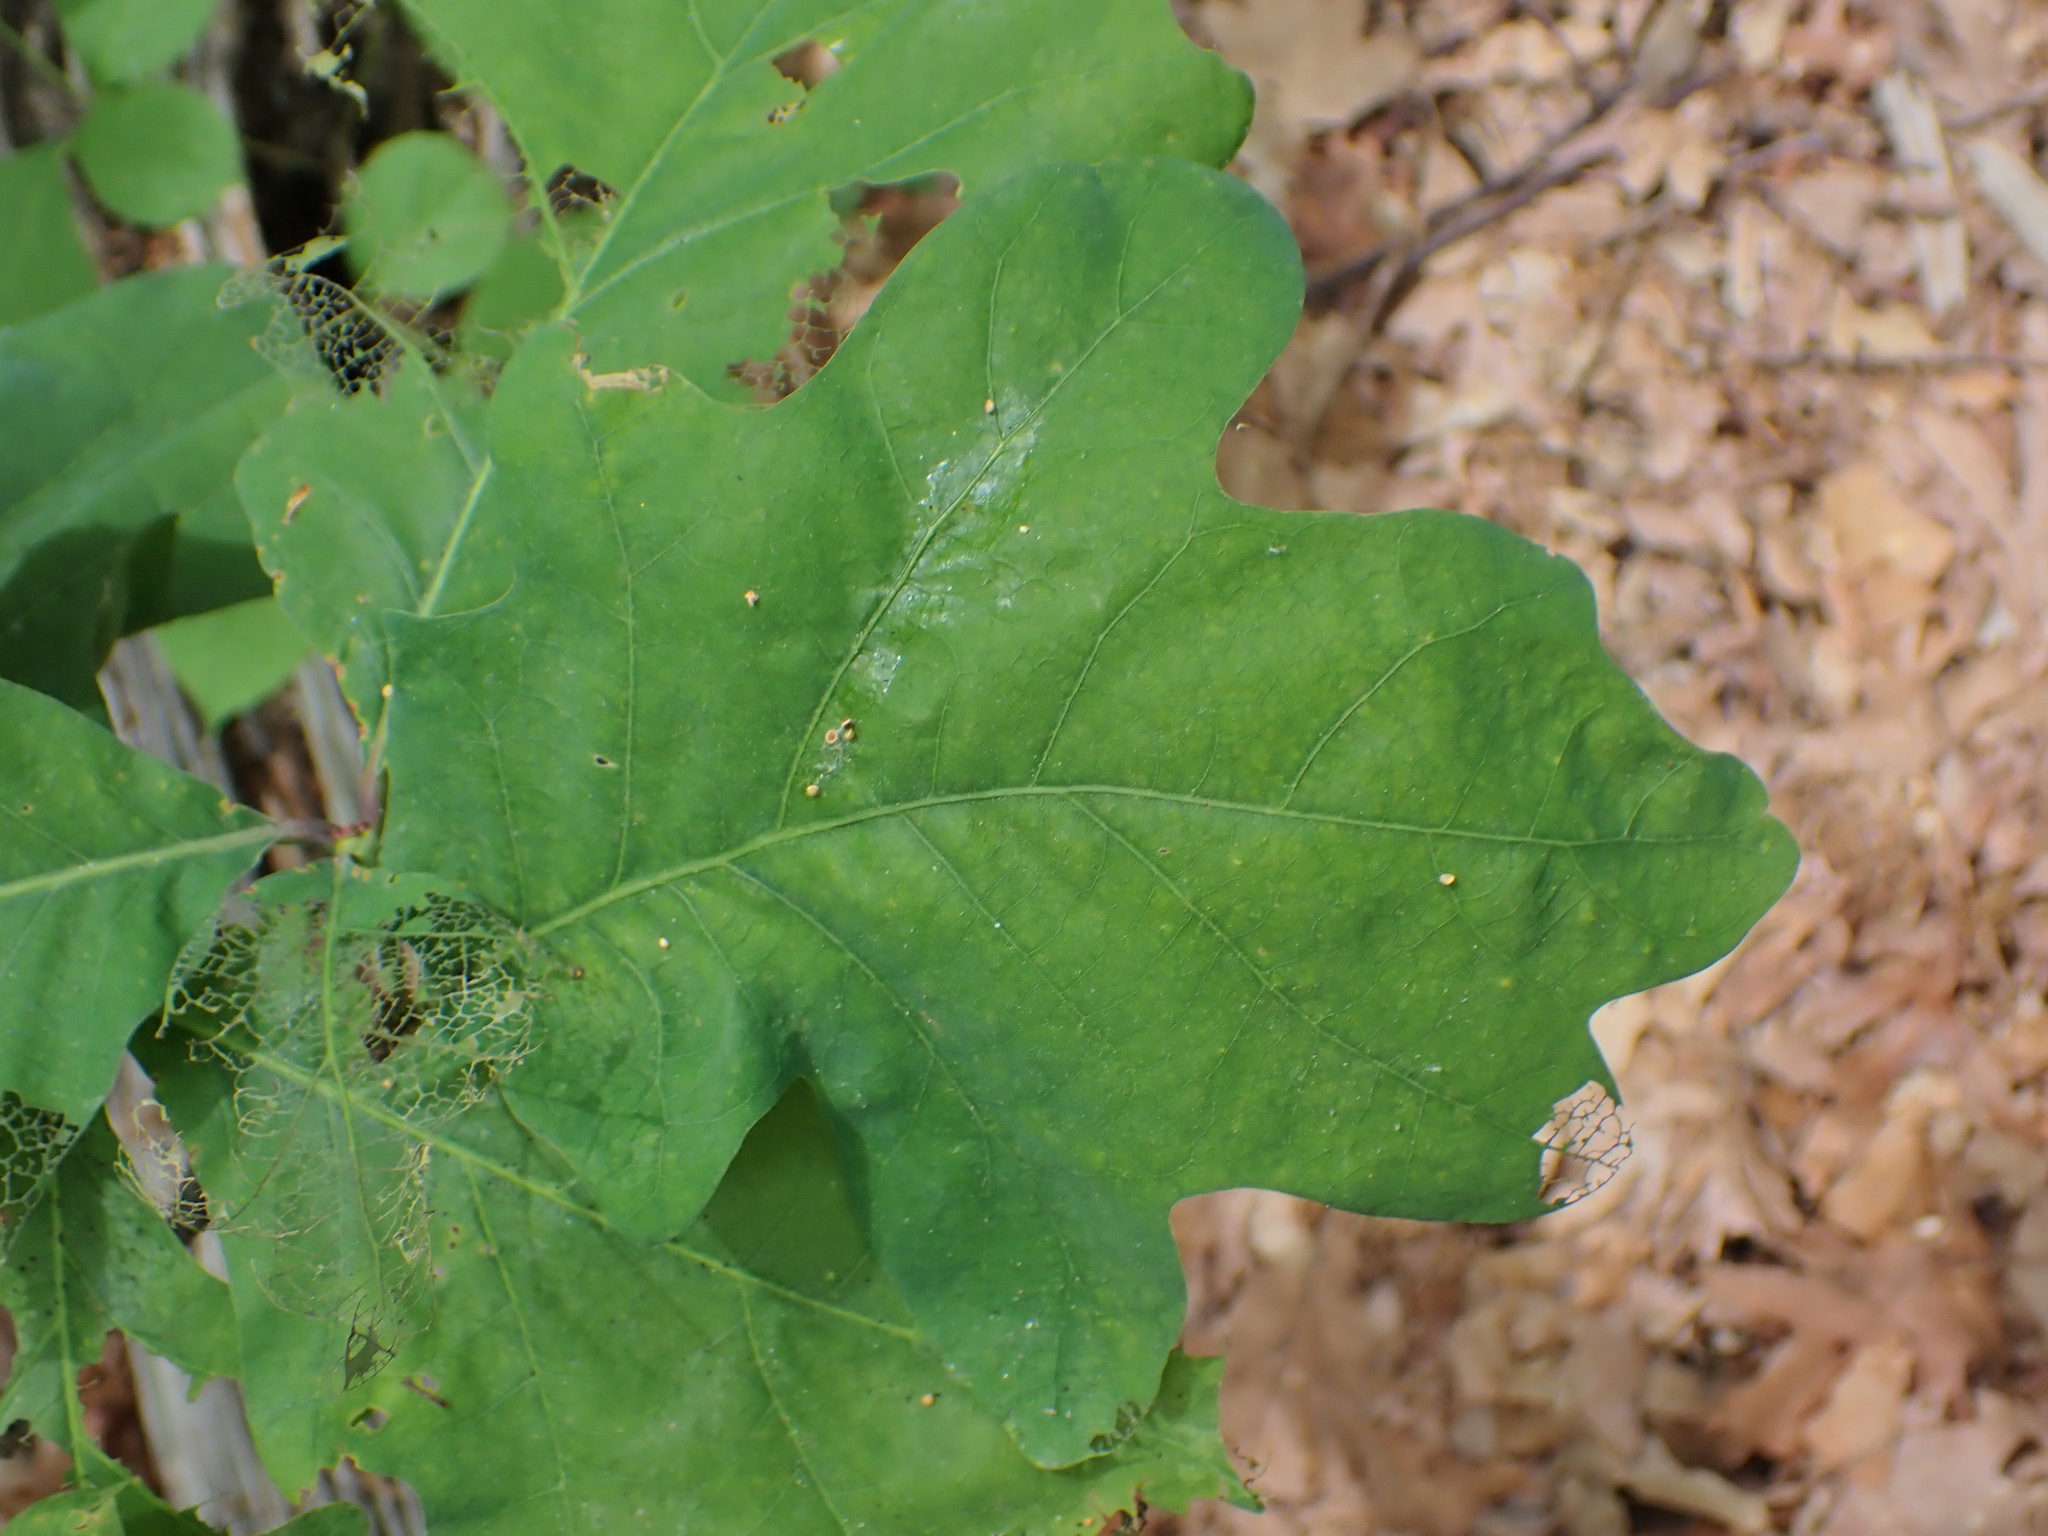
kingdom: Animalia
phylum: Arthropoda
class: Insecta
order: Hymenoptera
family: Cynipidae
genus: Disholcaspis
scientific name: Disholcaspis quercusglobulus
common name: Round bullet gall wasp
